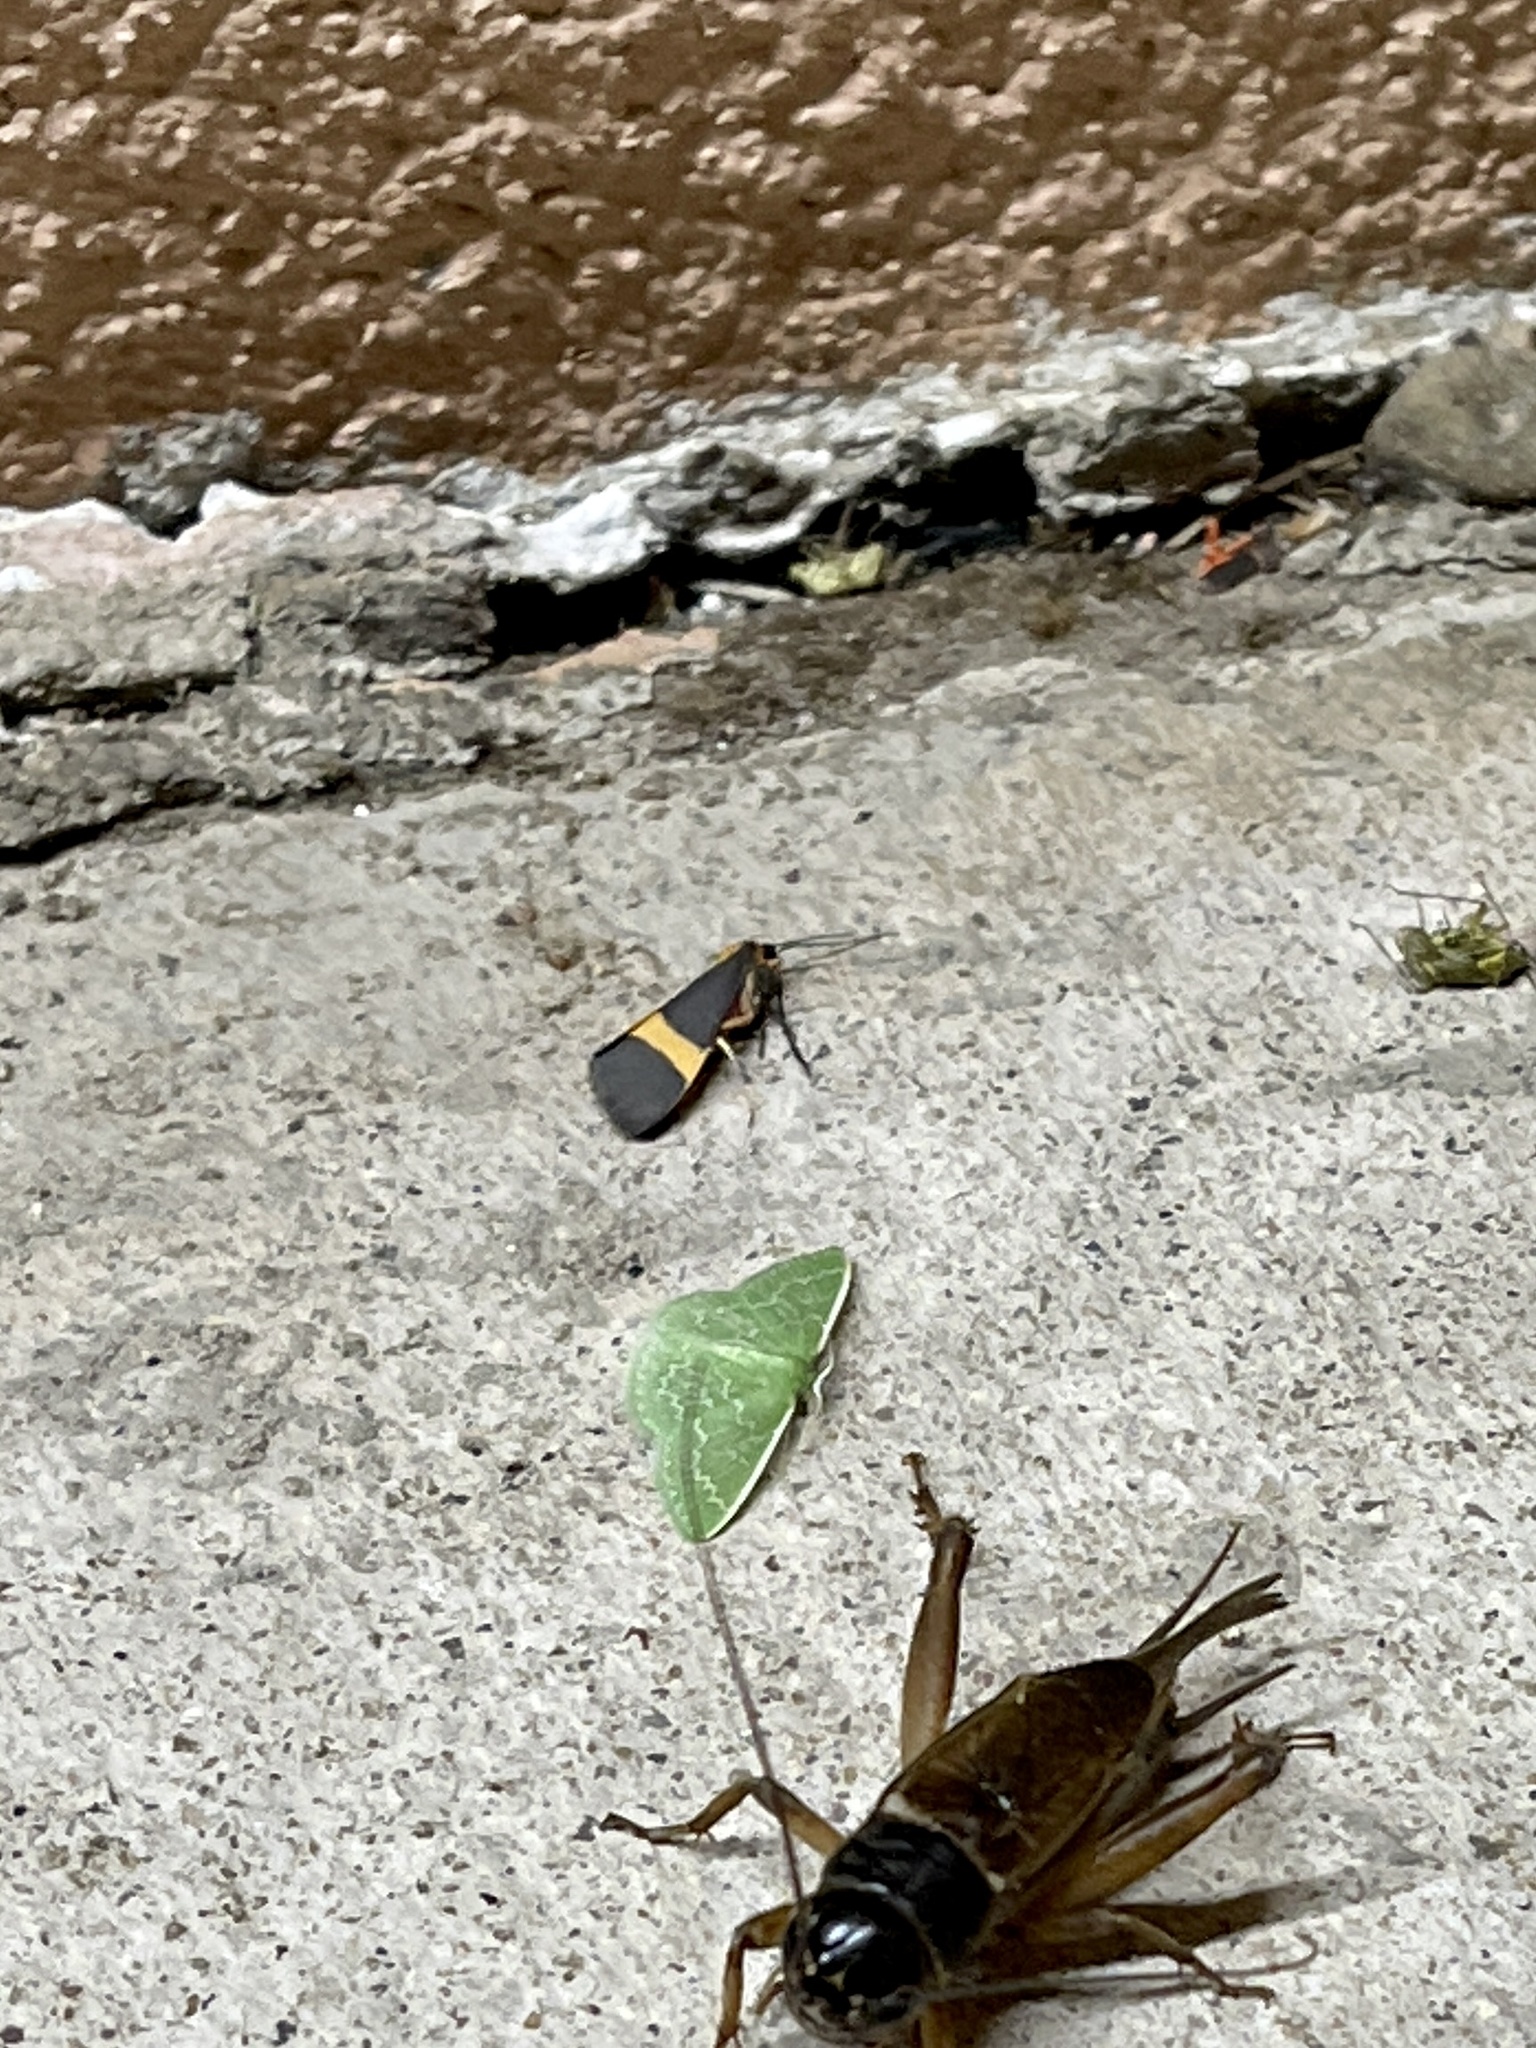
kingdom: Animalia
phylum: Arthropoda
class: Insecta
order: Lepidoptera
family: Erebidae
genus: Cisthene
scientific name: Cisthene tenuifascia
